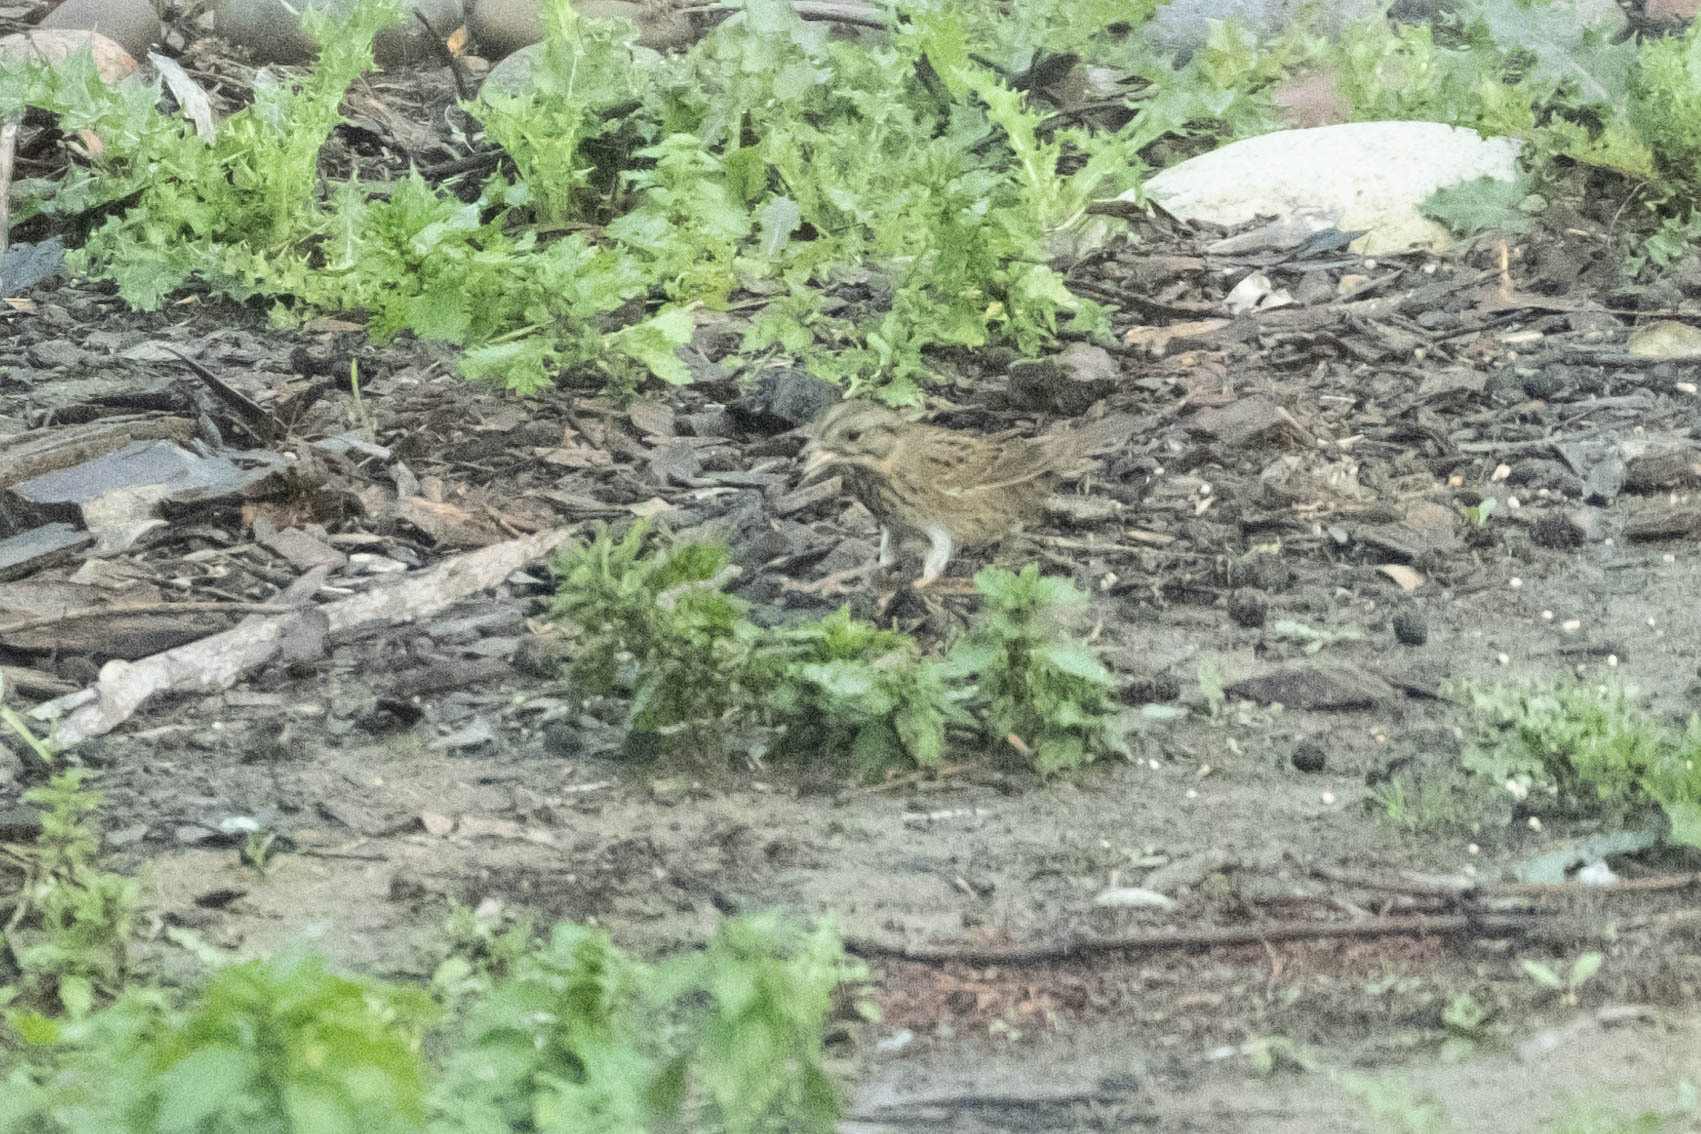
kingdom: Animalia
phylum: Chordata
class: Aves
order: Passeriformes
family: Passerellidae
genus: Melospiza
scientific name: Melospiza lincolnii
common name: Lincoln's sparrow
